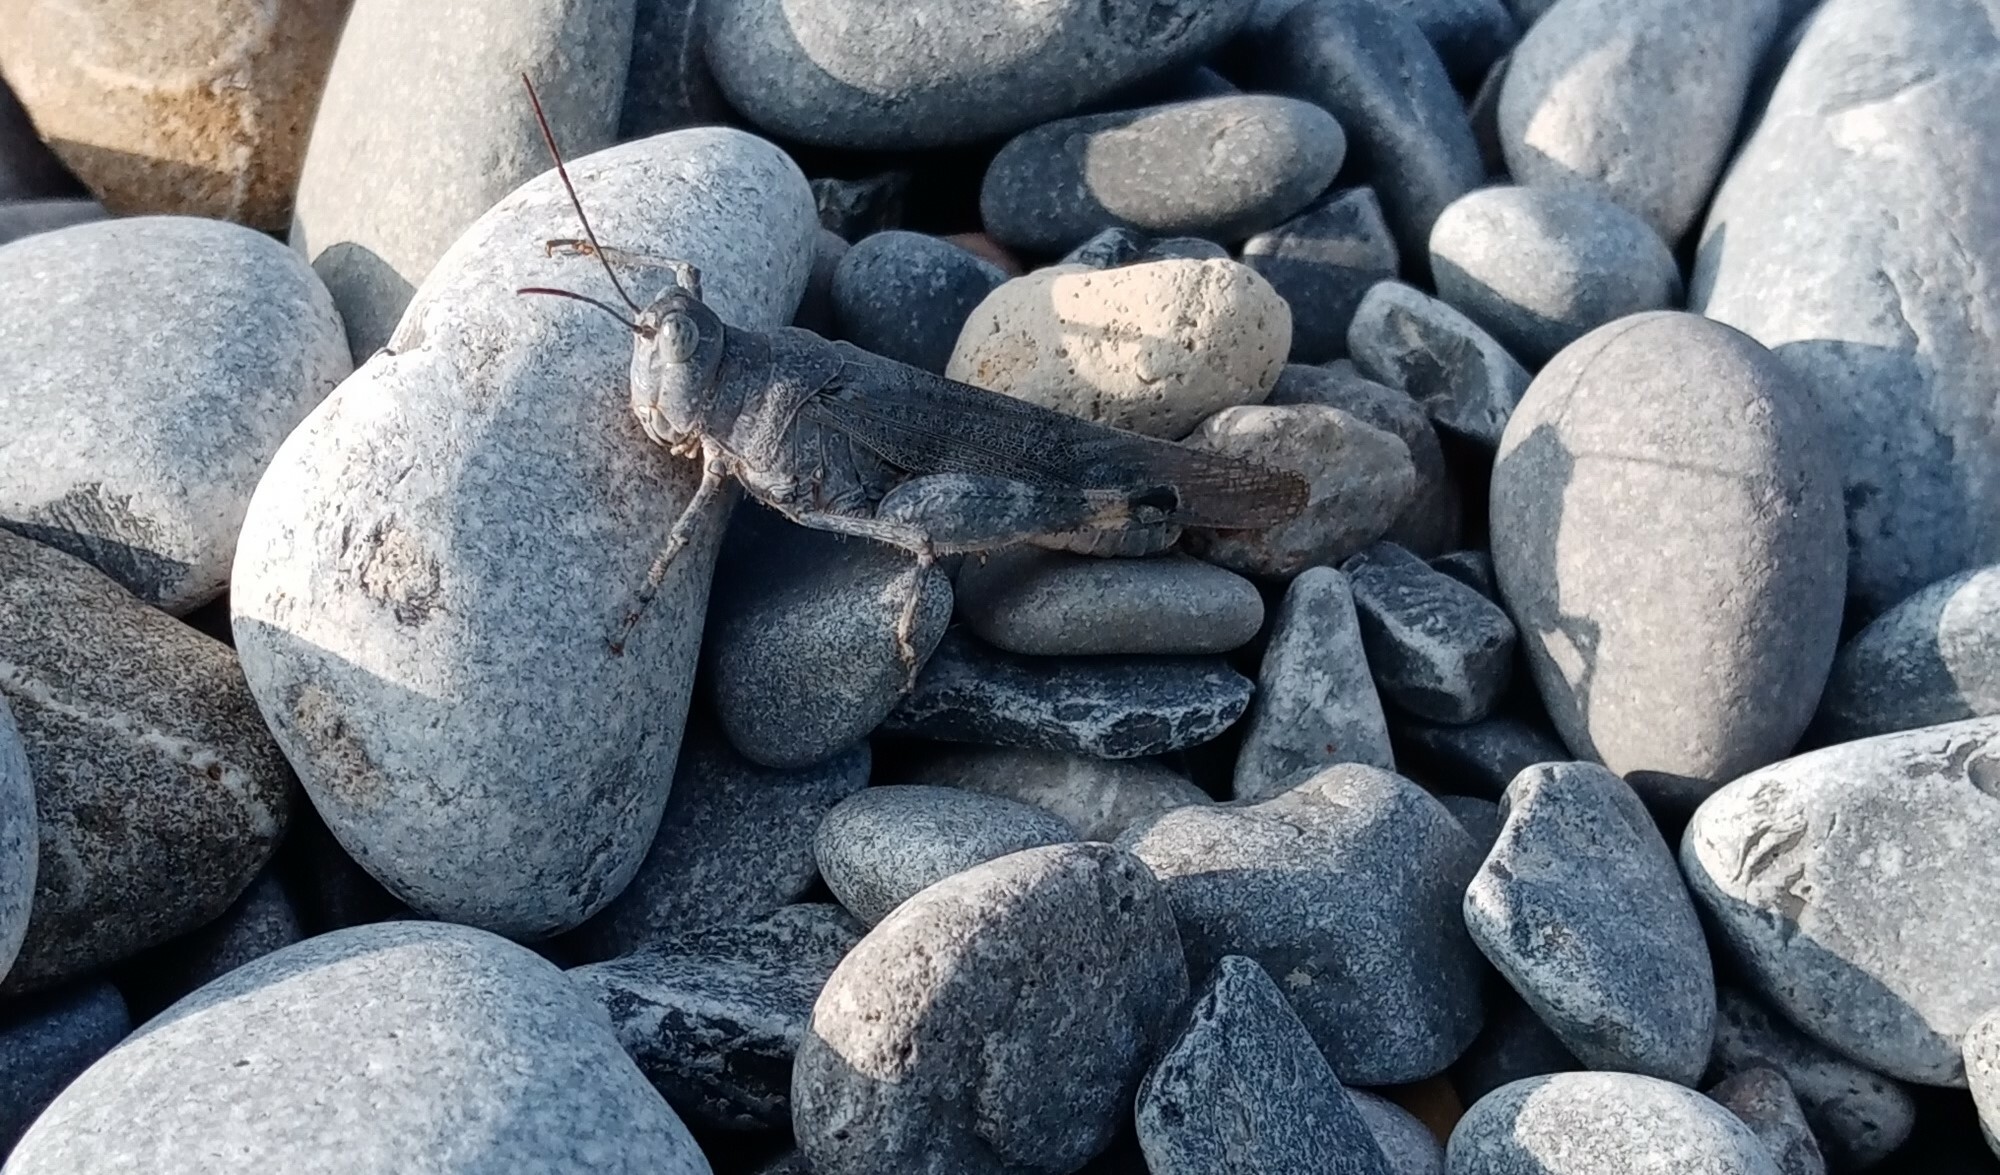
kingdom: Animalia
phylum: Arthropoda
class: Insecta
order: Orthoptera
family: Acrididae
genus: Heliastus
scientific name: Heliastus aztecus
